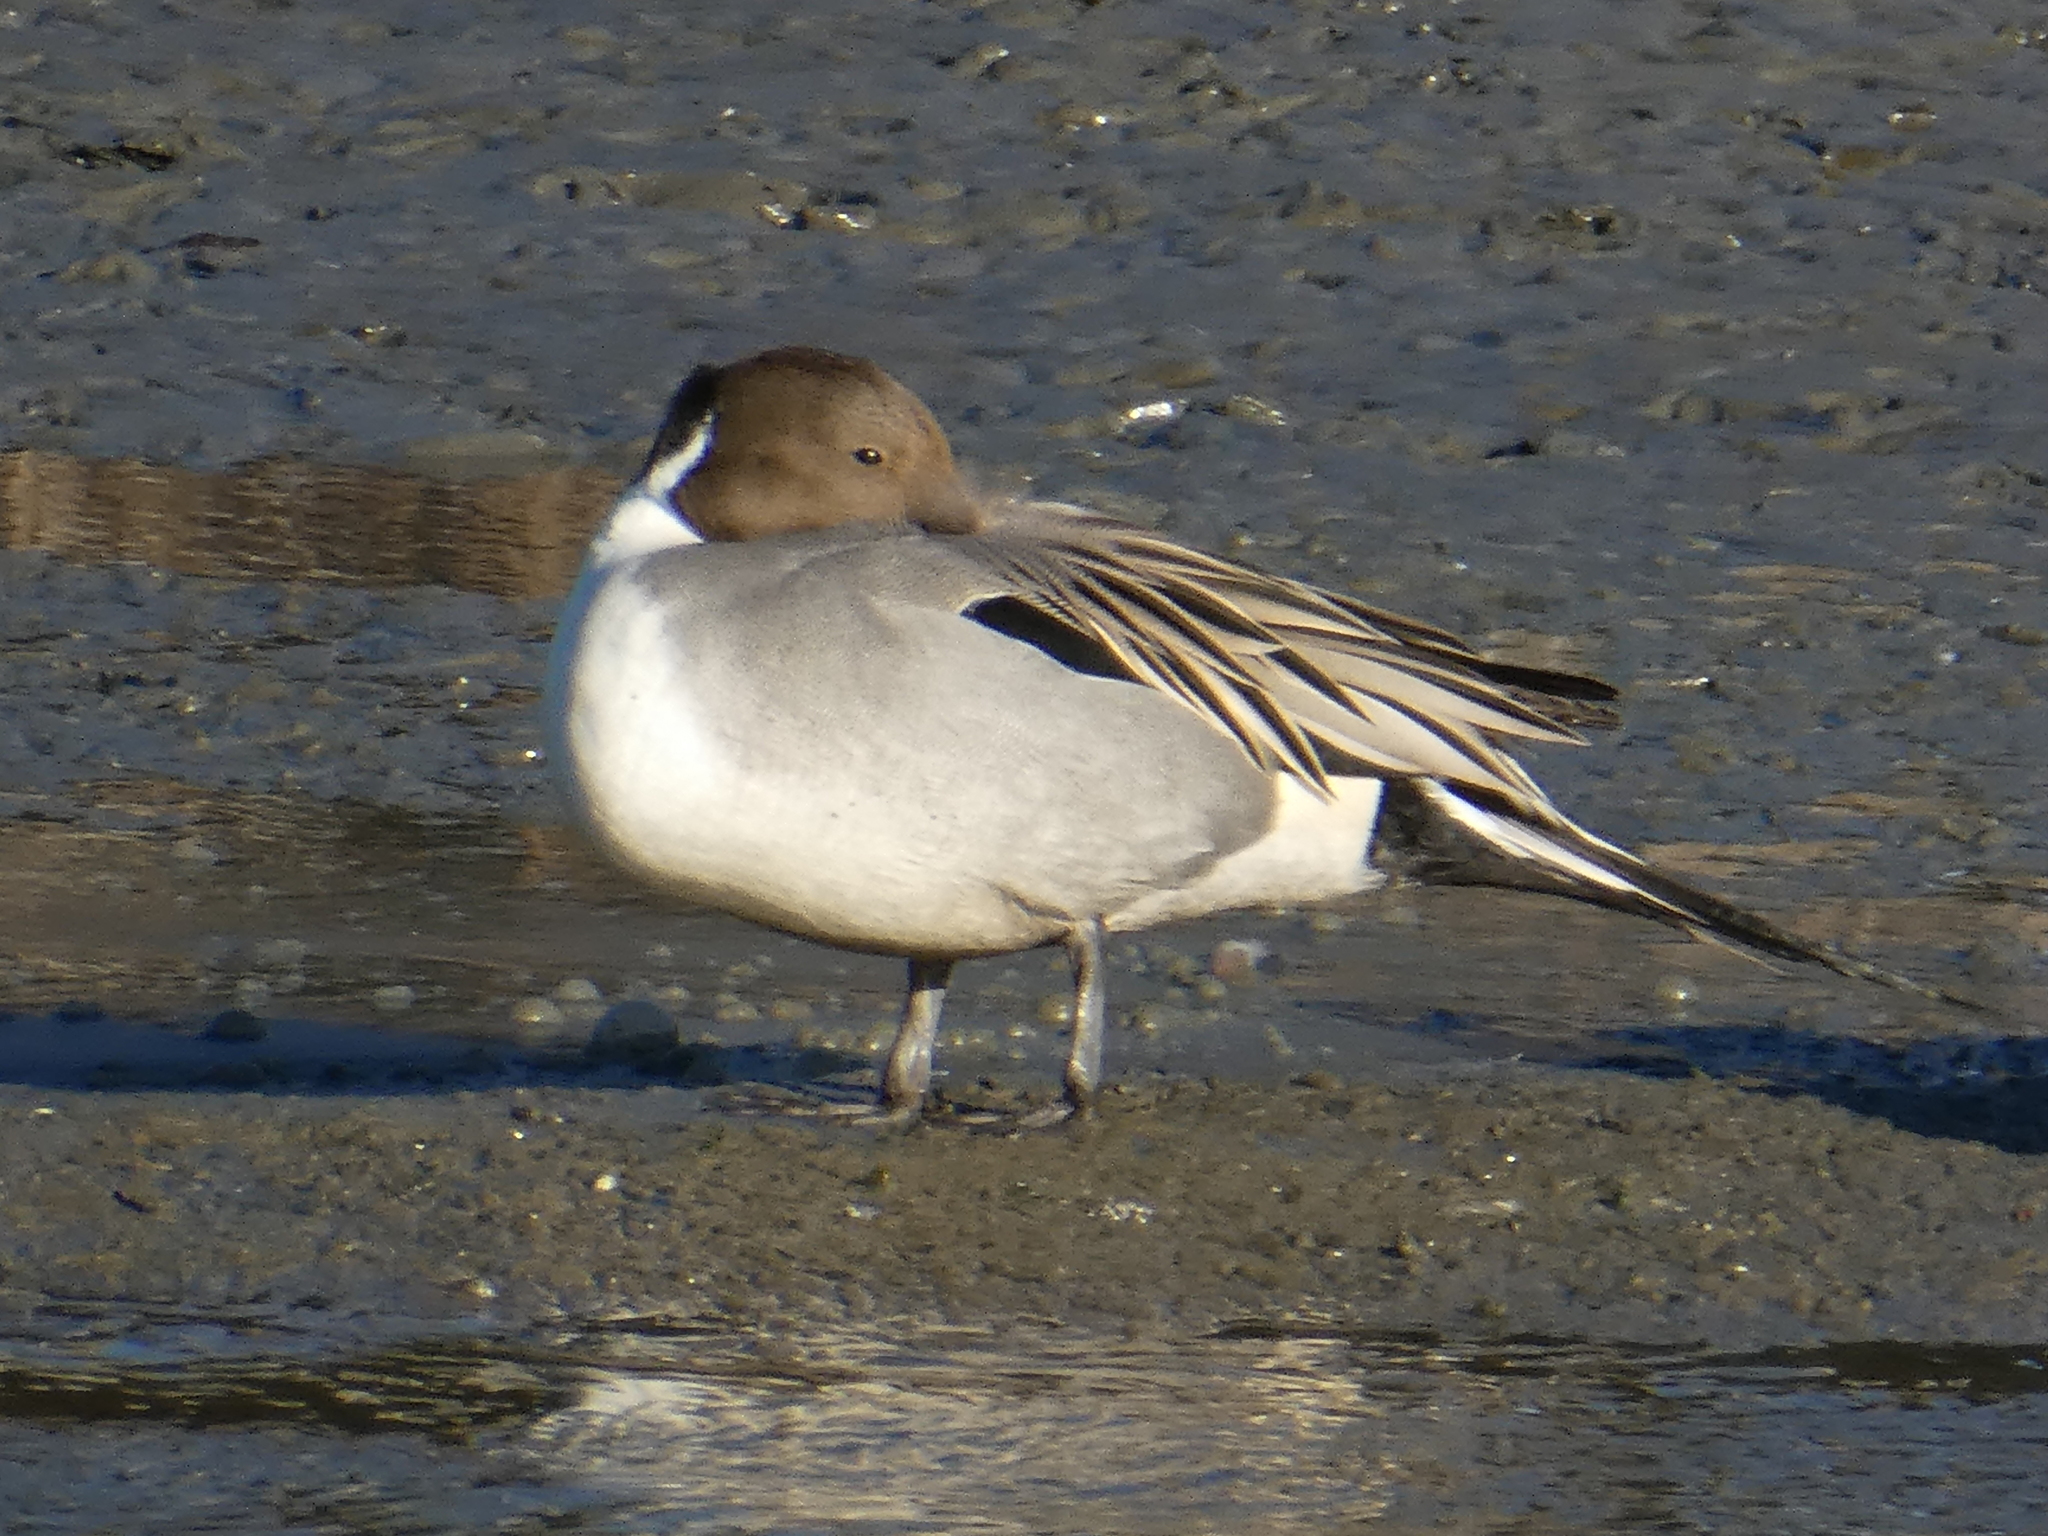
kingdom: Animalia
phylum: Chordata
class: Aves
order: Anseriformes
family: Anatidae
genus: Anas
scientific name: Anas acuta
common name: Northern pintail
